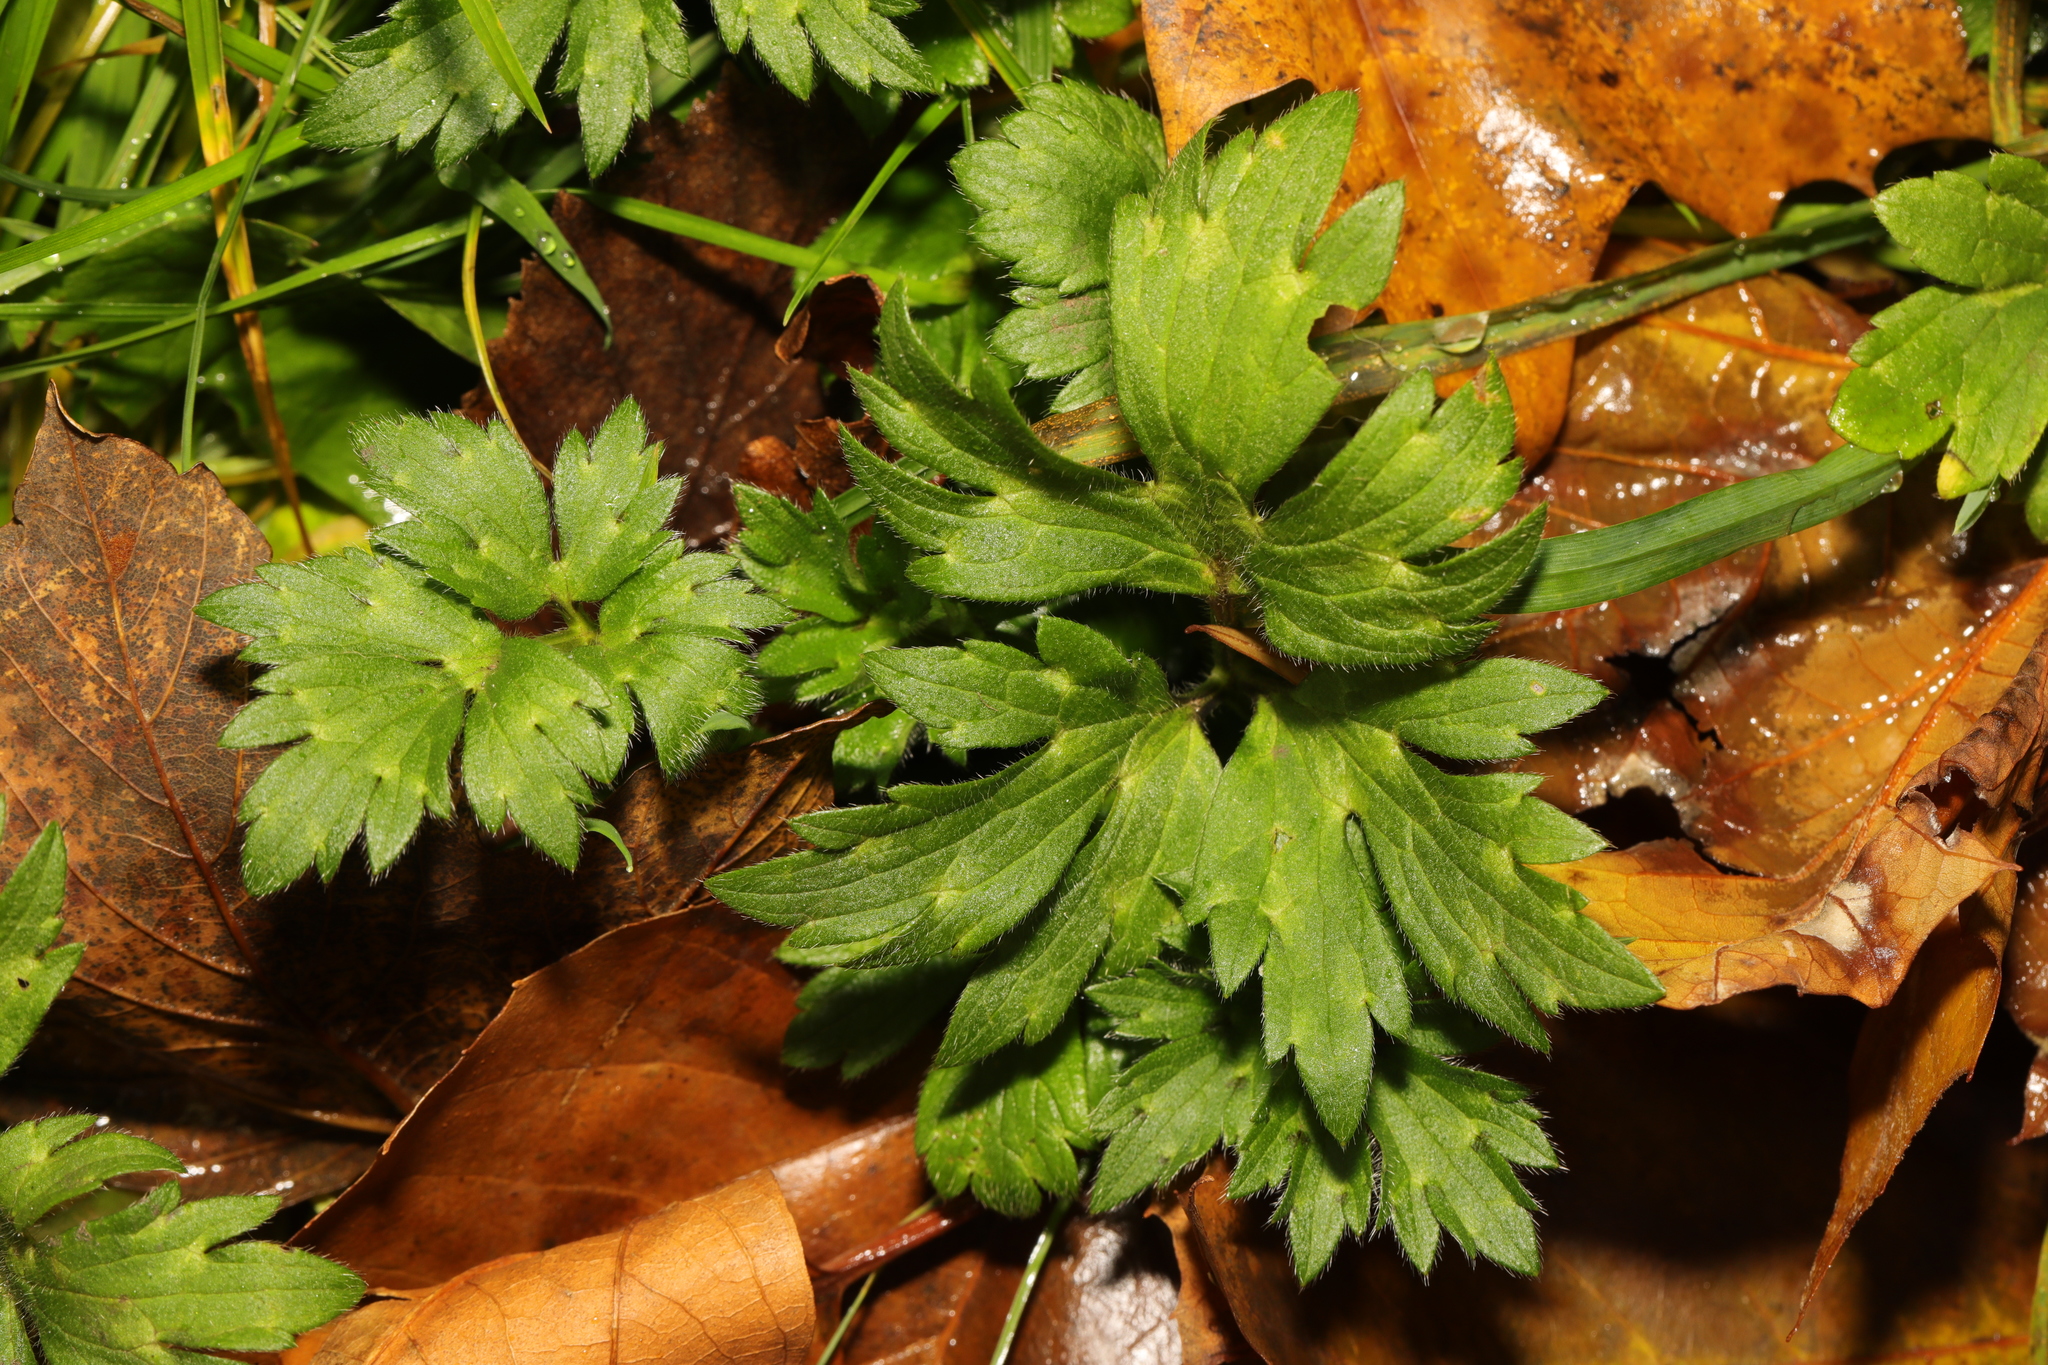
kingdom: Plantae
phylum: Tracheophyta
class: Magnoliopsida
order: Ranunculales
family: Ranunculaceae
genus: Ranunculus
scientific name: Ranunculus repens
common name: Creeping buttercup
